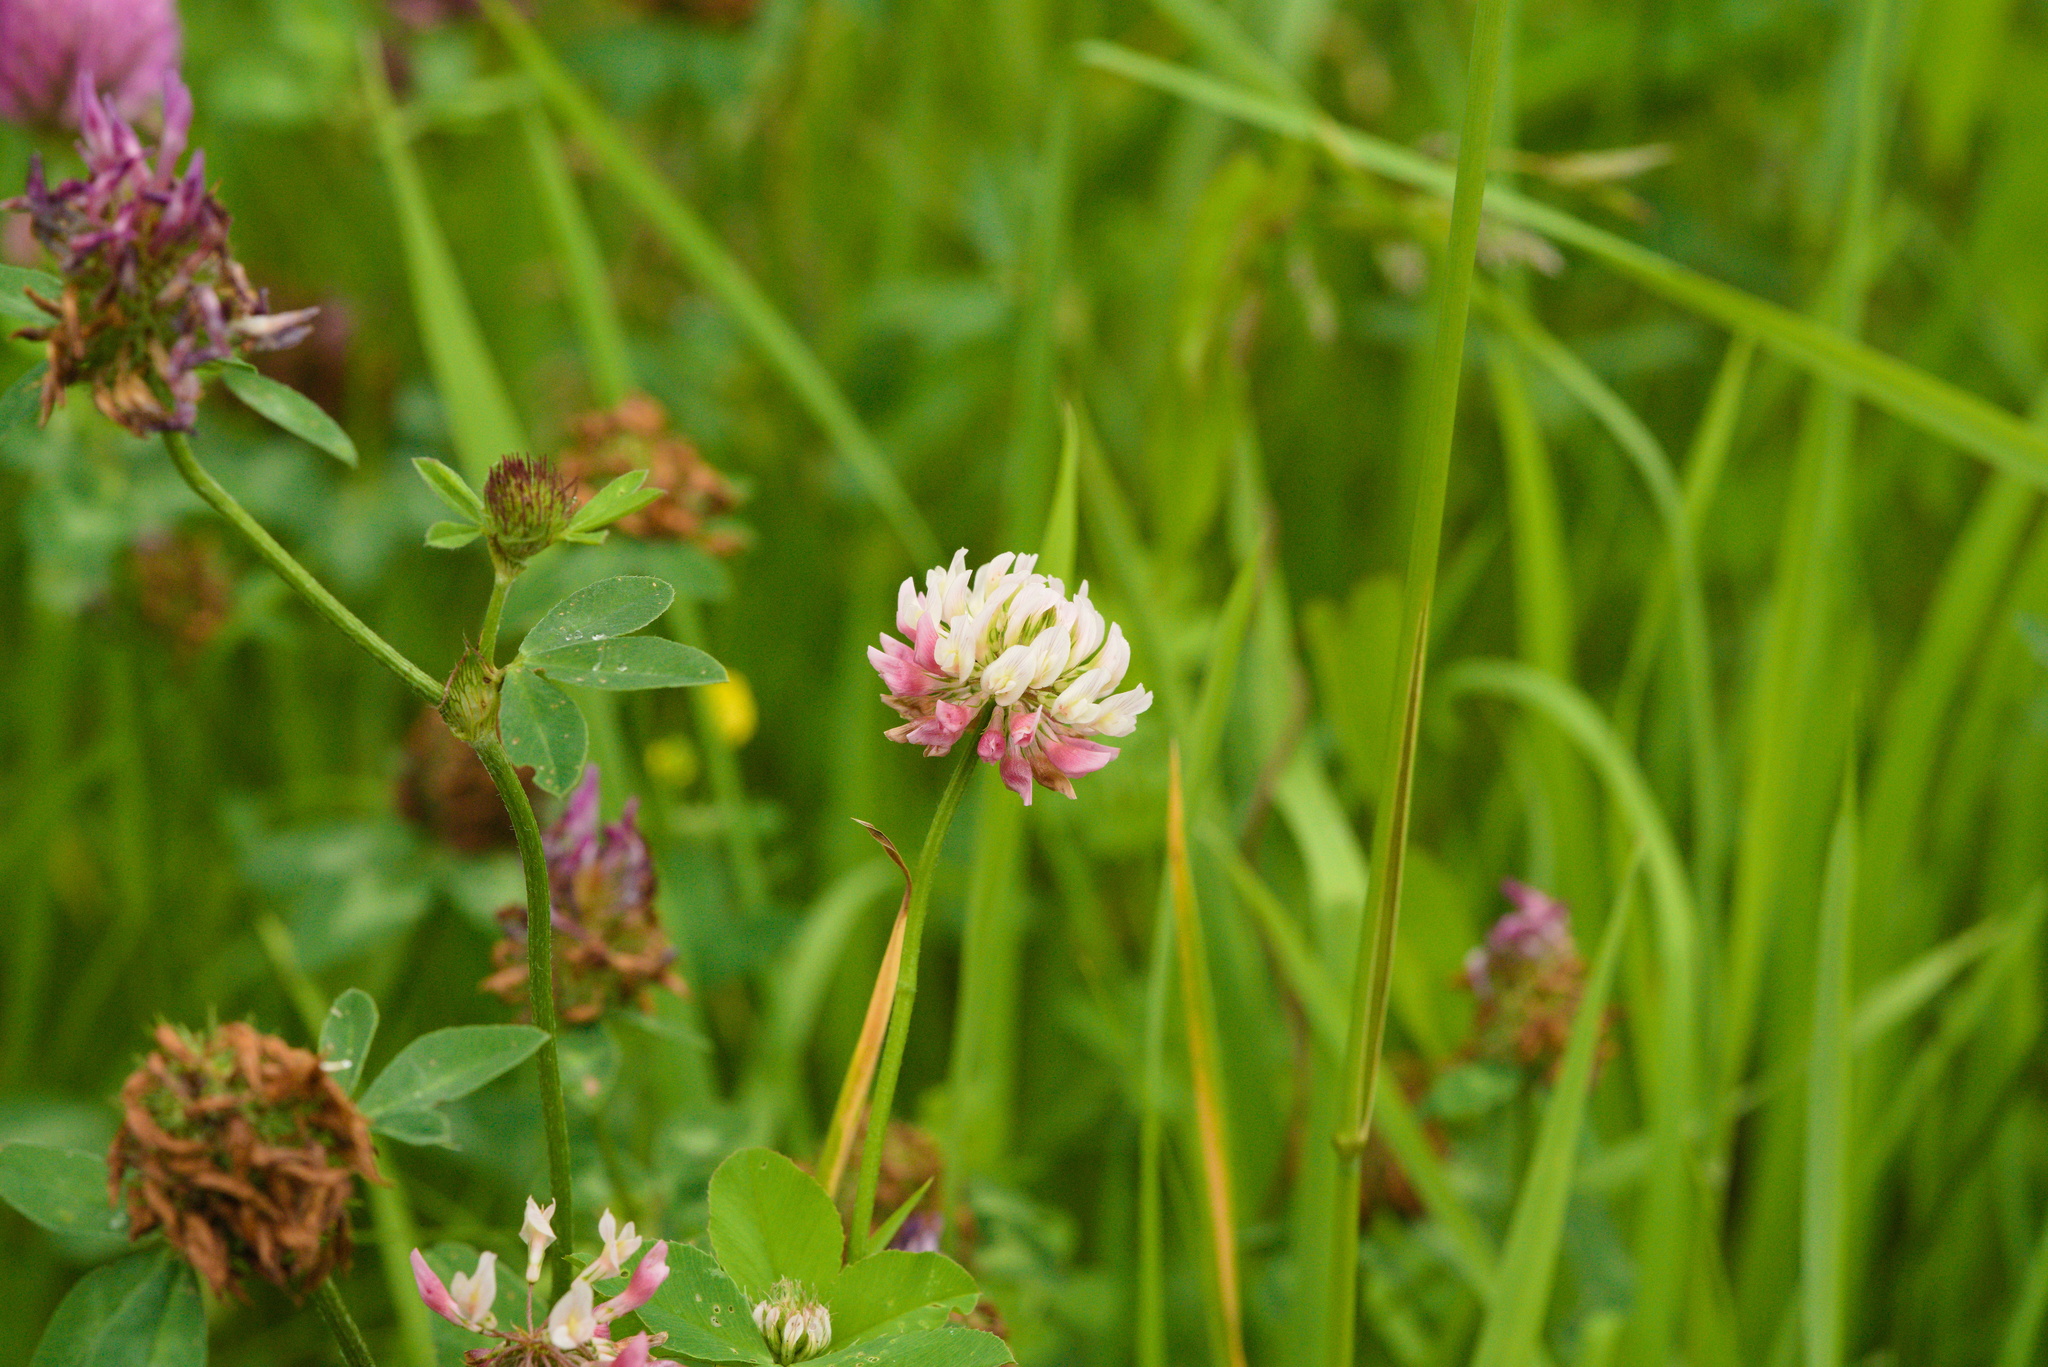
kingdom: Plantae
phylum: Tracheophyta
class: Magnoliopsida
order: Fabales
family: Fabaceae
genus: Trifolium
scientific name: Trifolium hybridum
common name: Alsike clover
